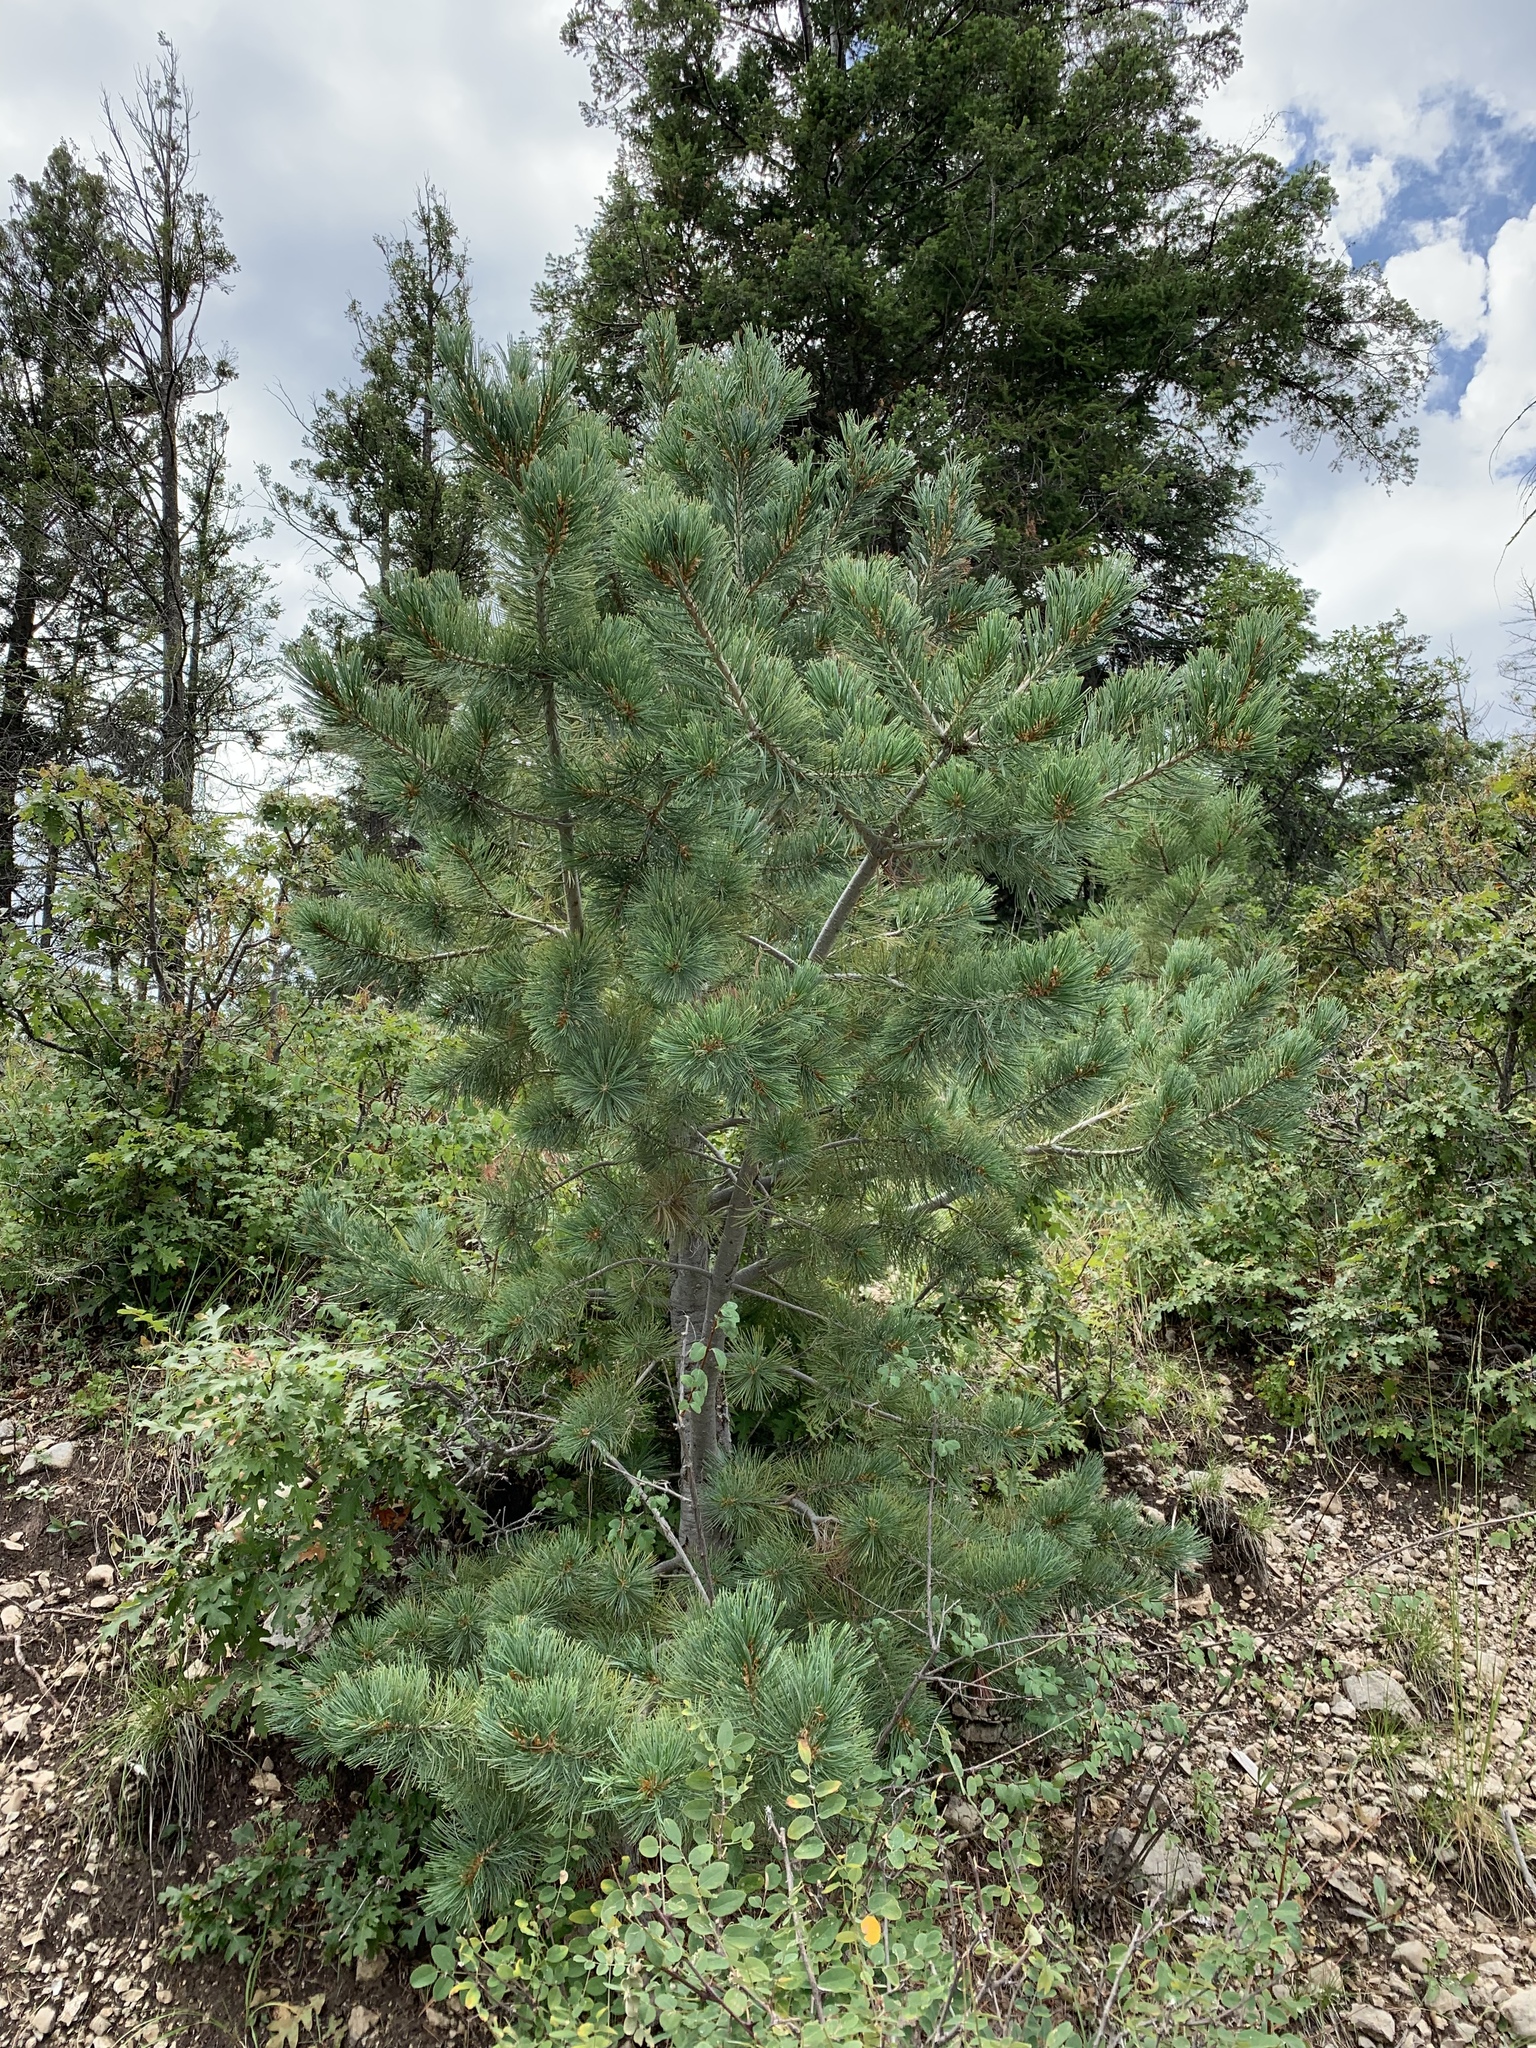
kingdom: Plantae
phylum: Tracheophyta
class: Pinopsida
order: Pinales
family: Pinaceae
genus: Pinus
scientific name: Pinus strobiformis
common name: Southwestern white pine
